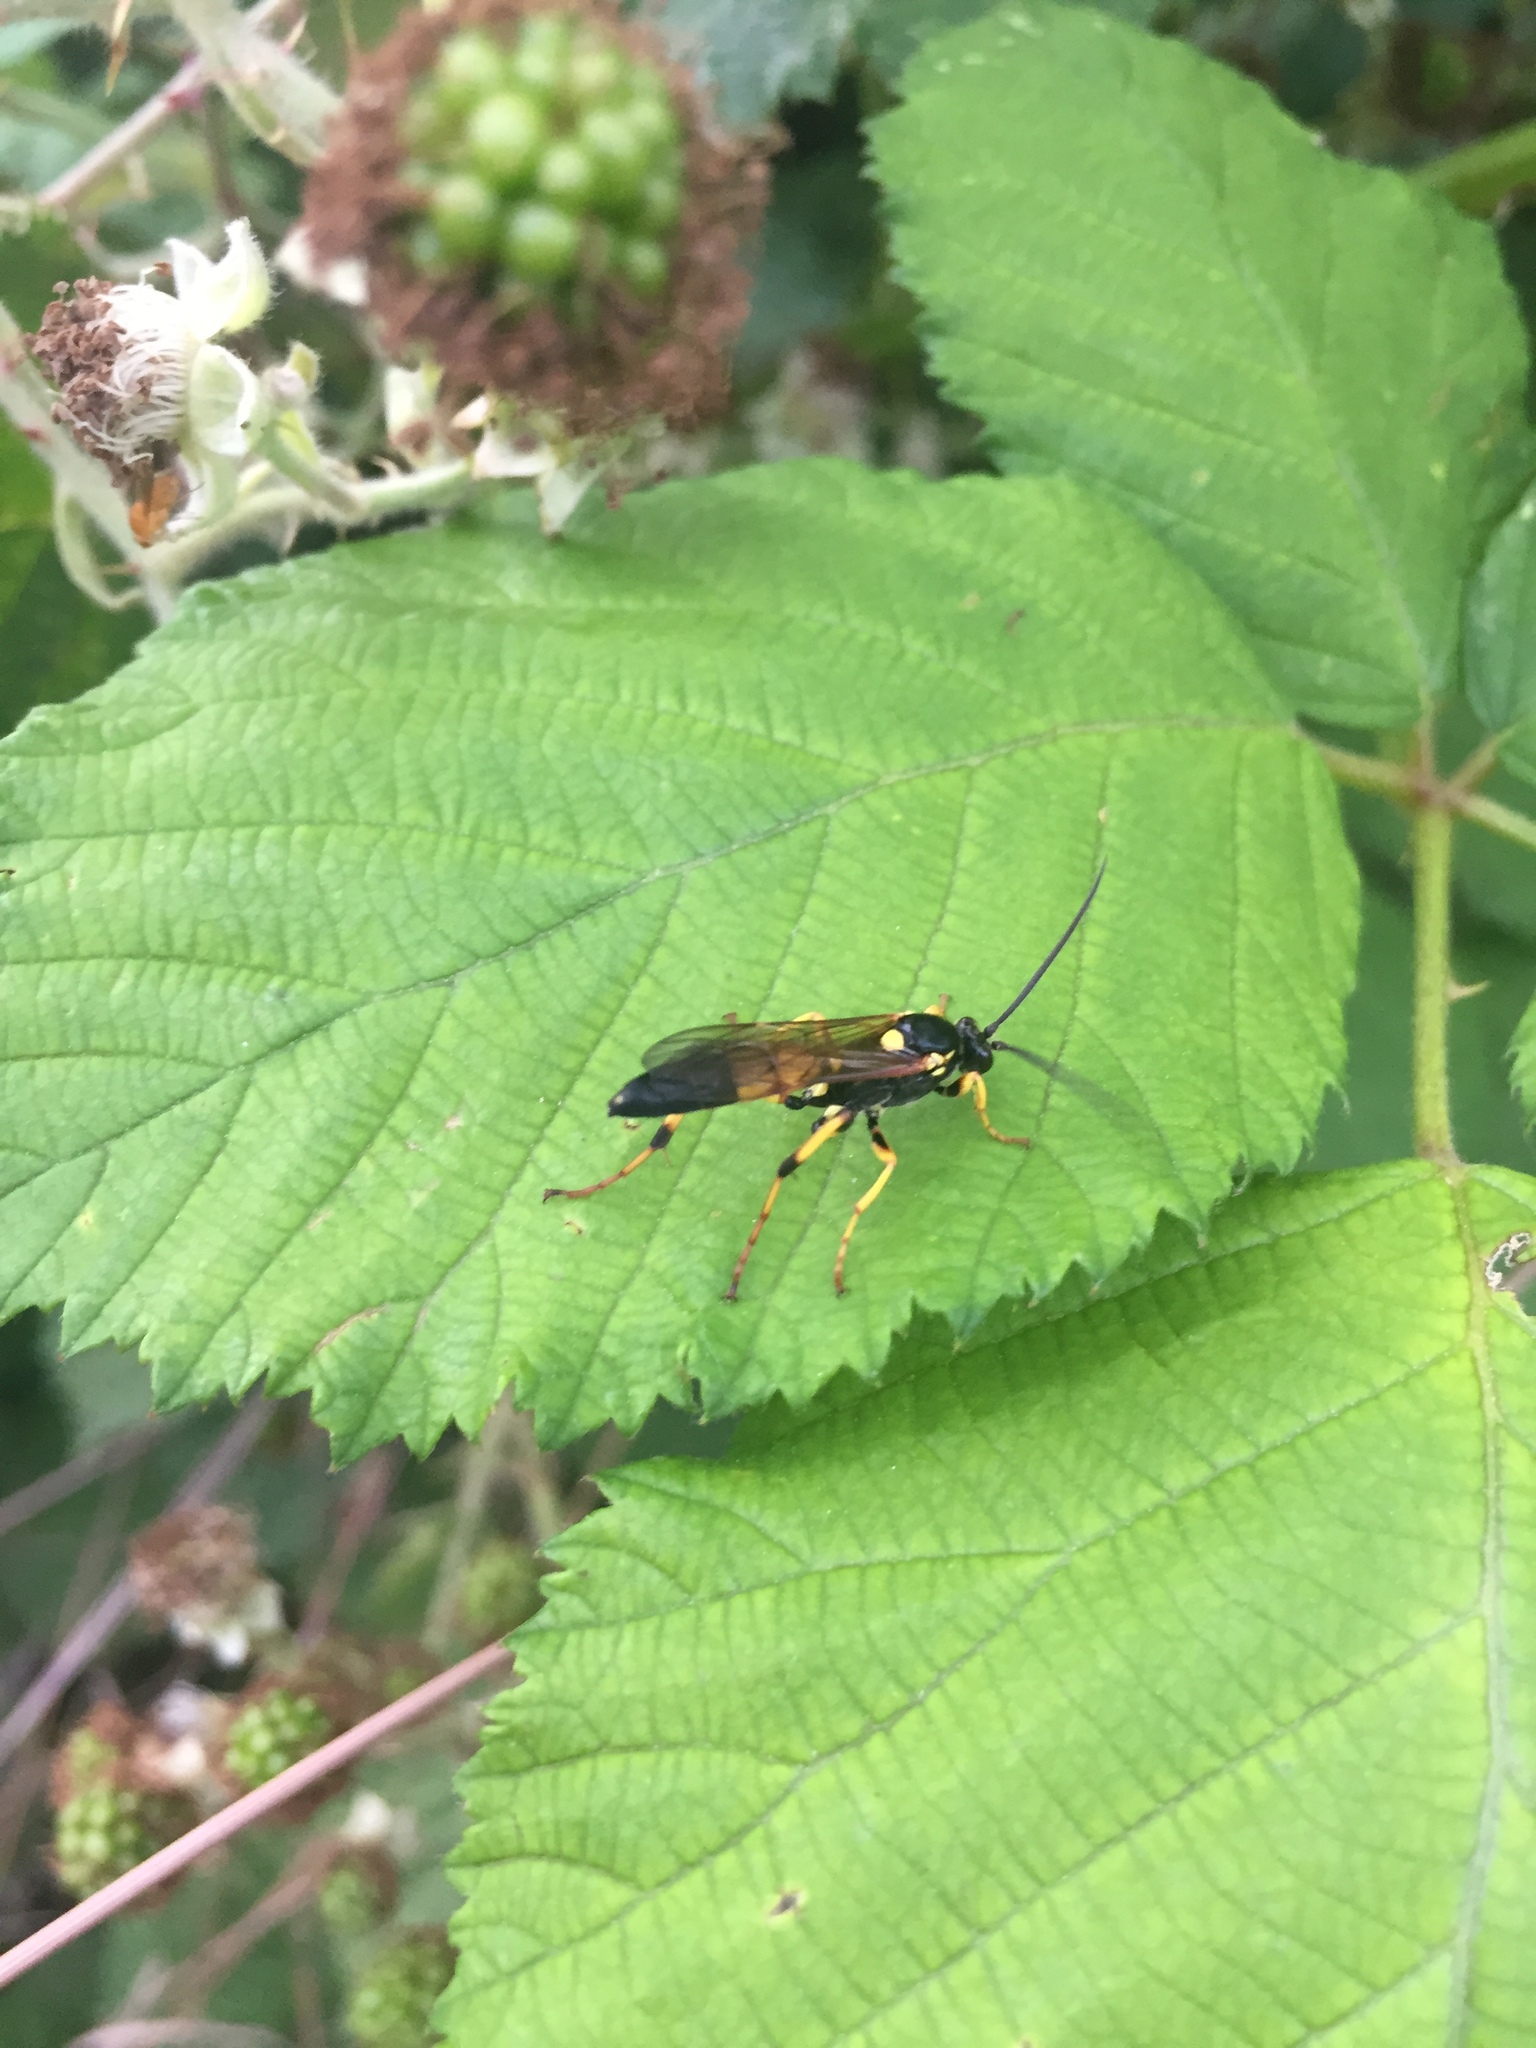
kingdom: Animalia
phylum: Arthropoda
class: Insecta
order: Hymenoptera
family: Ichneumonidae
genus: Ichneumon
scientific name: Ichneumon xanthorius
